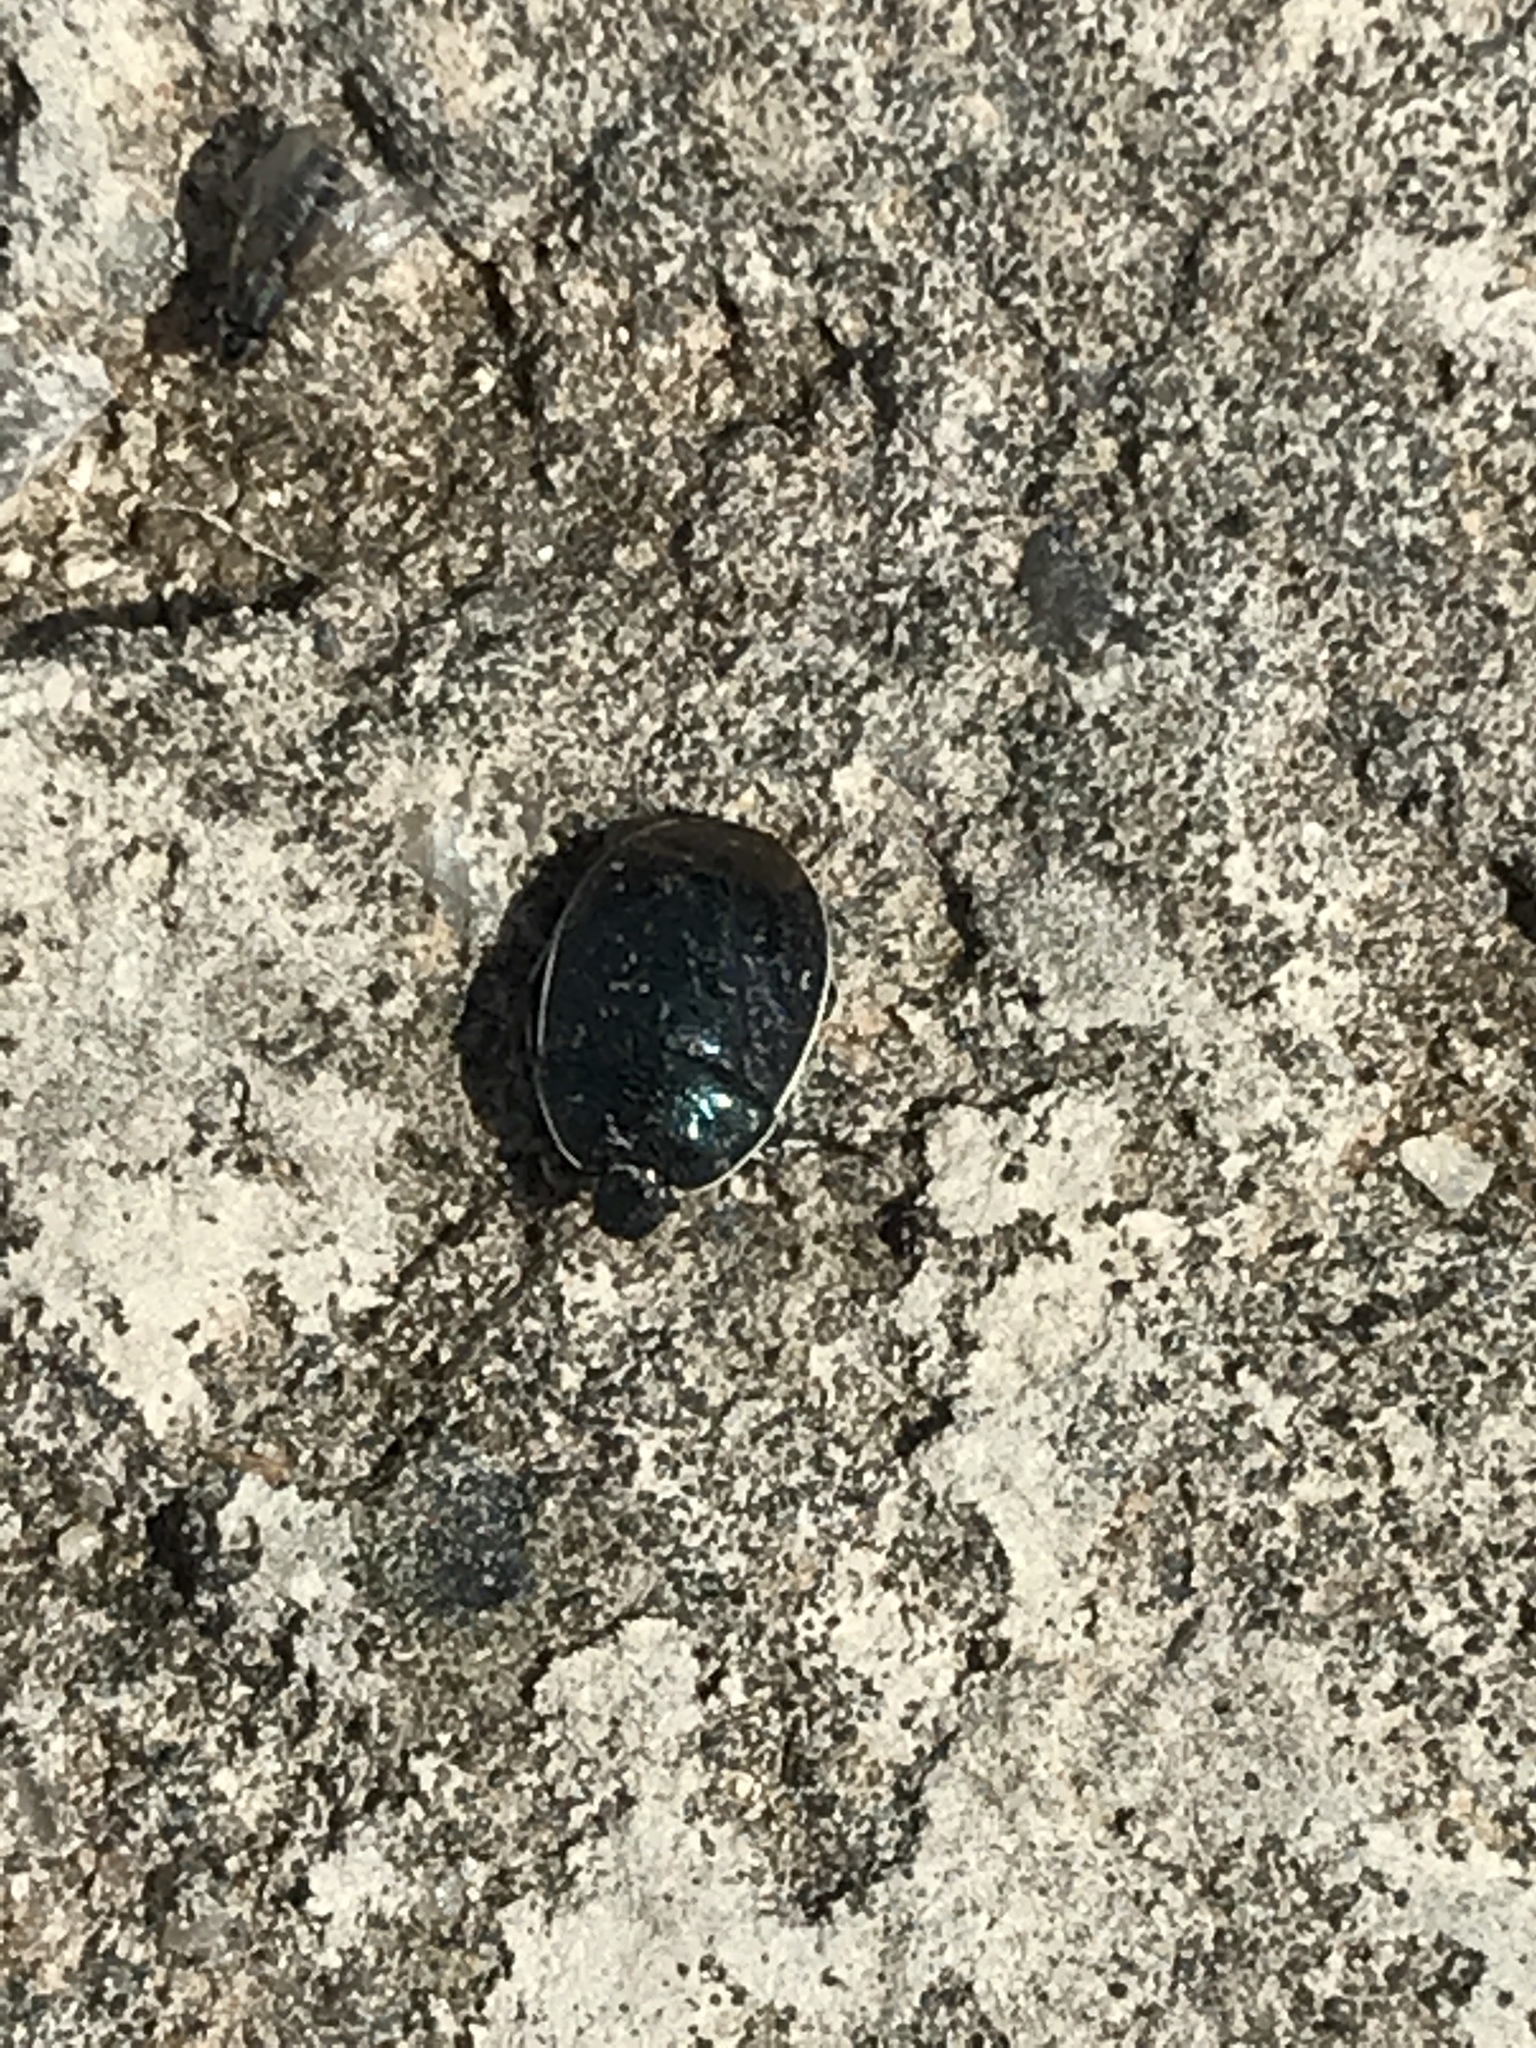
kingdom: Animalia
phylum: Arthropoda
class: Insecta
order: Hemiptera
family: Cydnidae
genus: Sehirus
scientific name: Sehirus cinctus
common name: White-margined burrower bug
